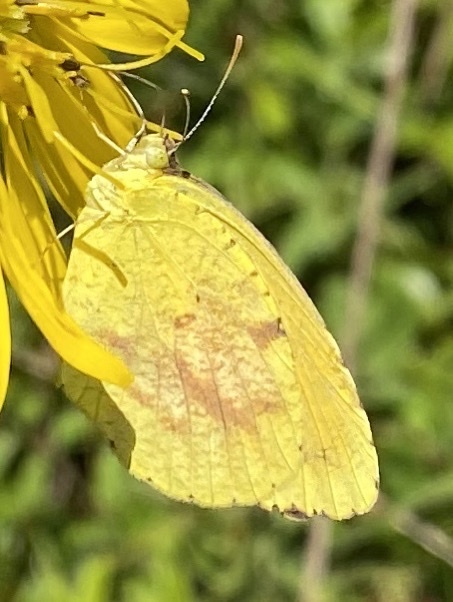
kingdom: Animalia
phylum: Arthropoda
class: Insecta
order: Lepidoptera
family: Pieridae
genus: Abaeis
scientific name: Abaeis nicippe
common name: Sleepy orange
